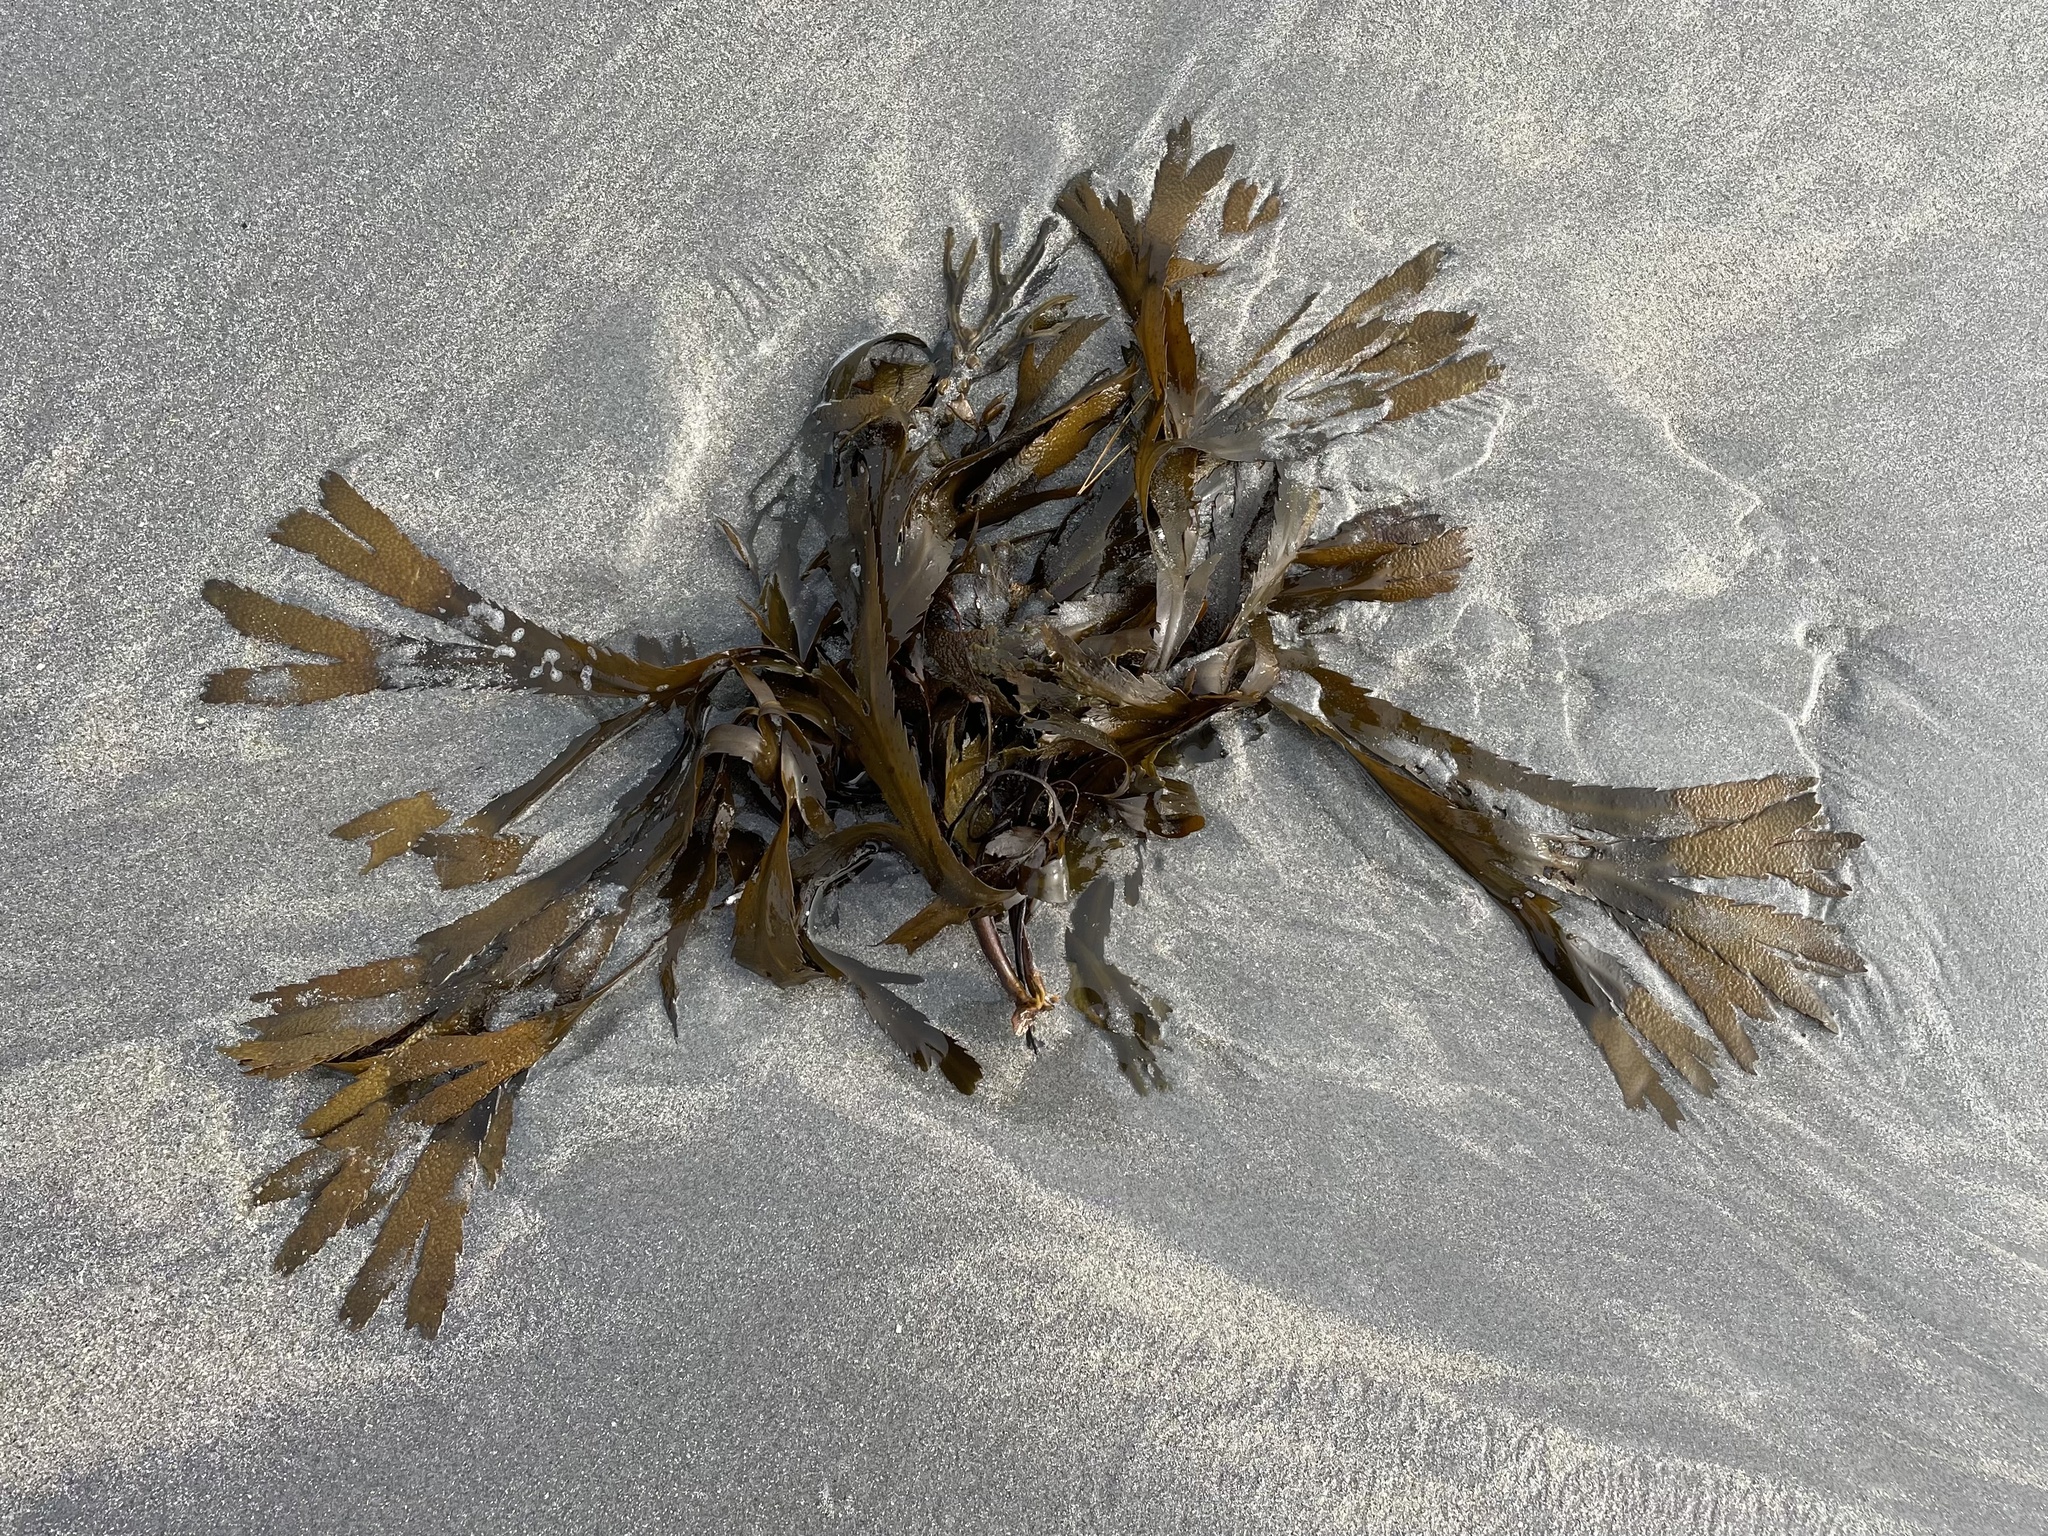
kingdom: Chromista
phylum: Ochrophyta
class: Phaeophyceae
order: Fucales
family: Fucaceae
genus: Fucus
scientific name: Fucus serratus
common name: Toothed wrack
